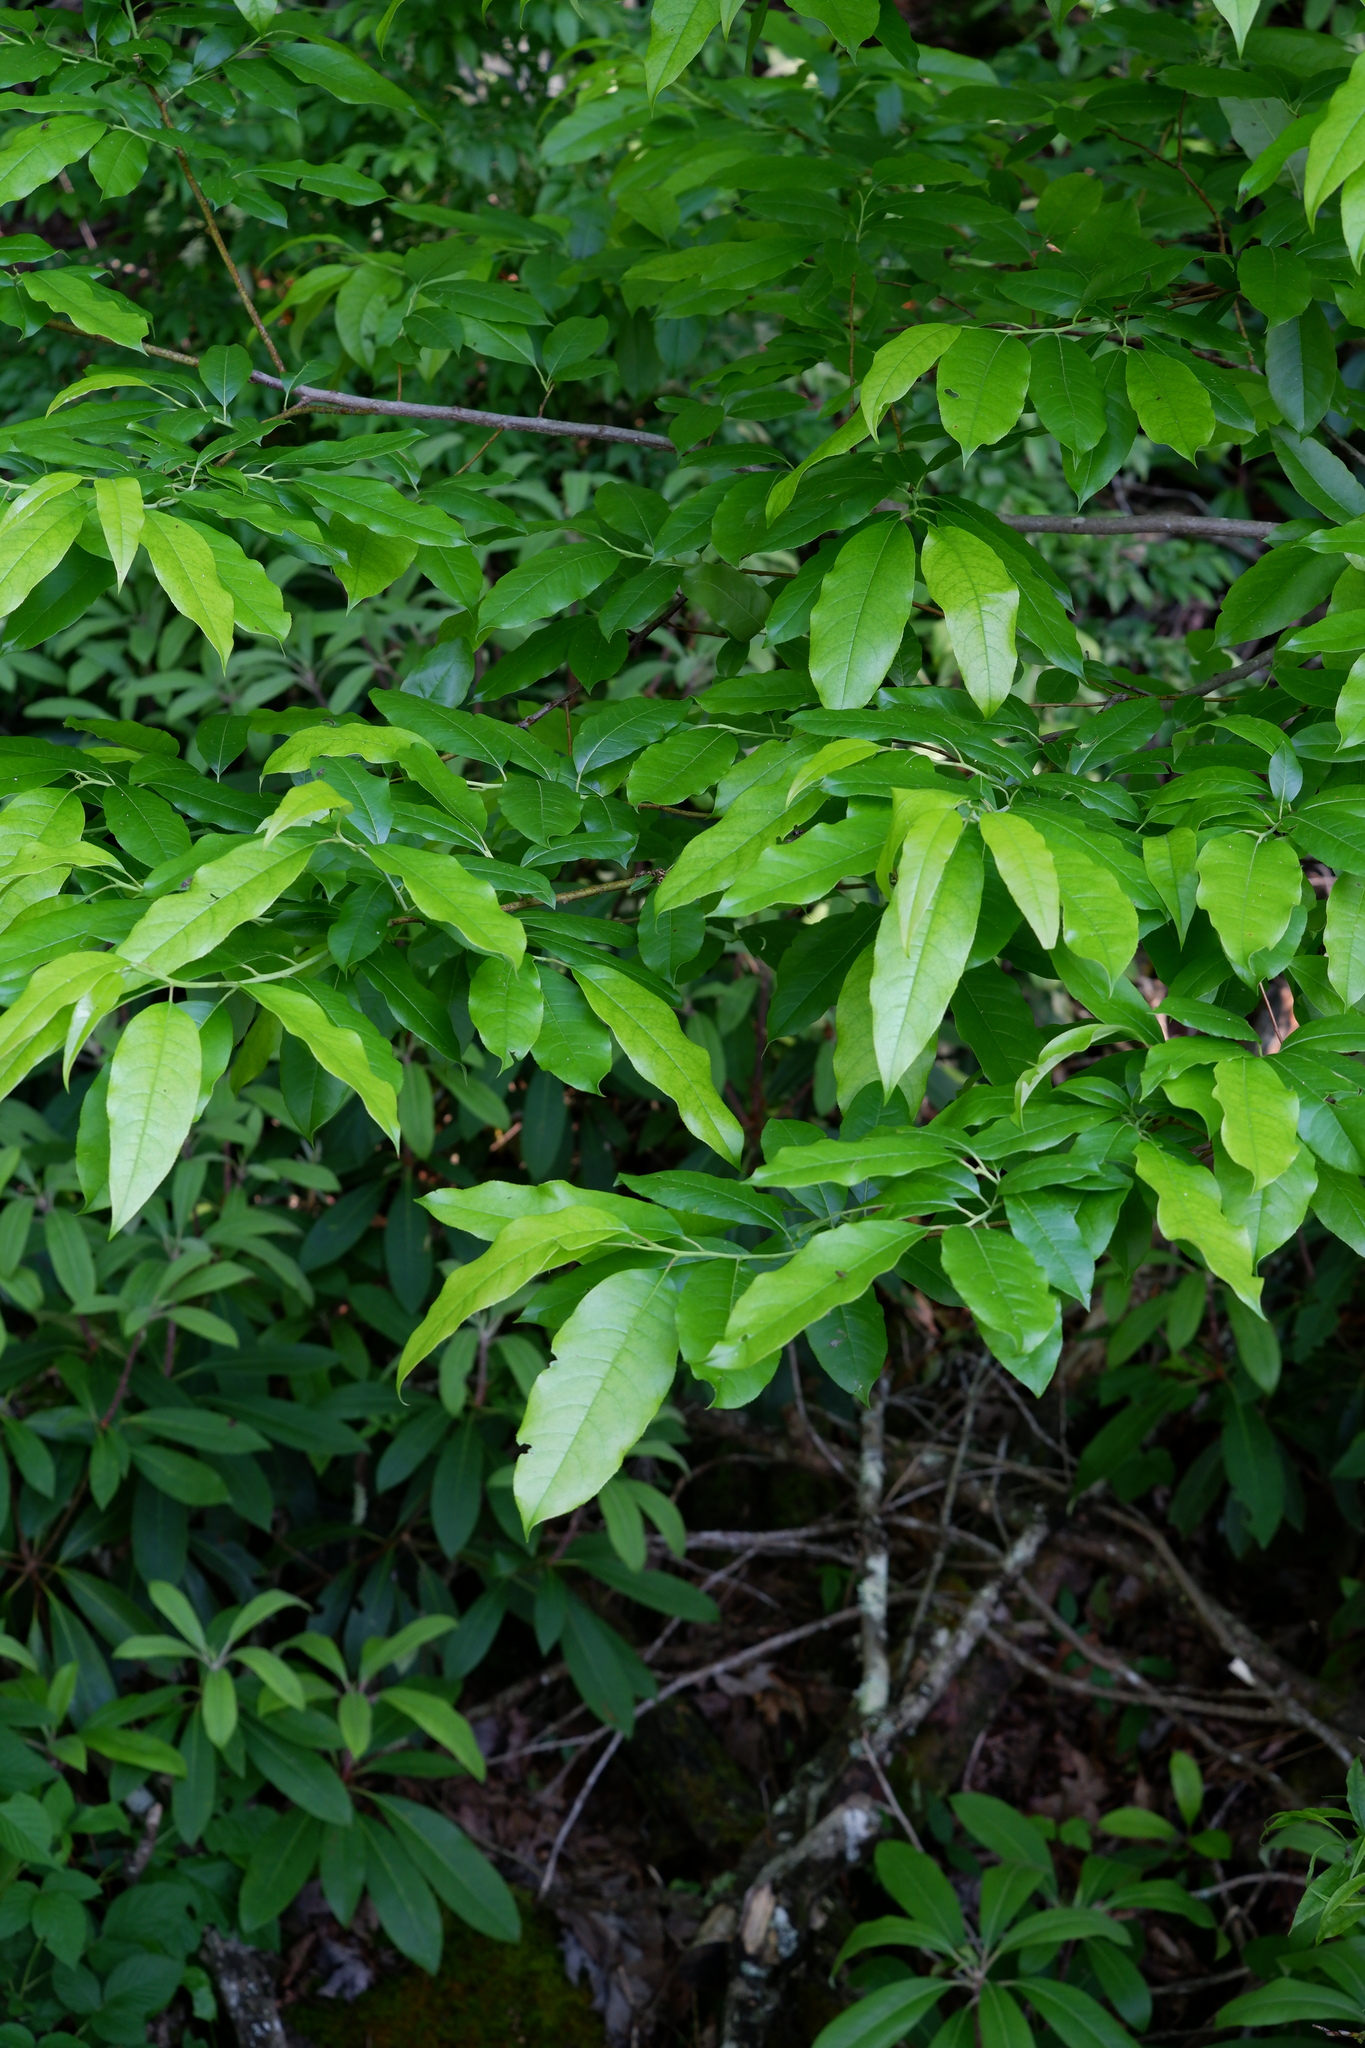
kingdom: Plantae
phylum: Tracheophyta
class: Magnoliopsida
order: Ericales
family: Ericaceae
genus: Oxydendrum
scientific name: Oxydendrum arboreum
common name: Sourwood
